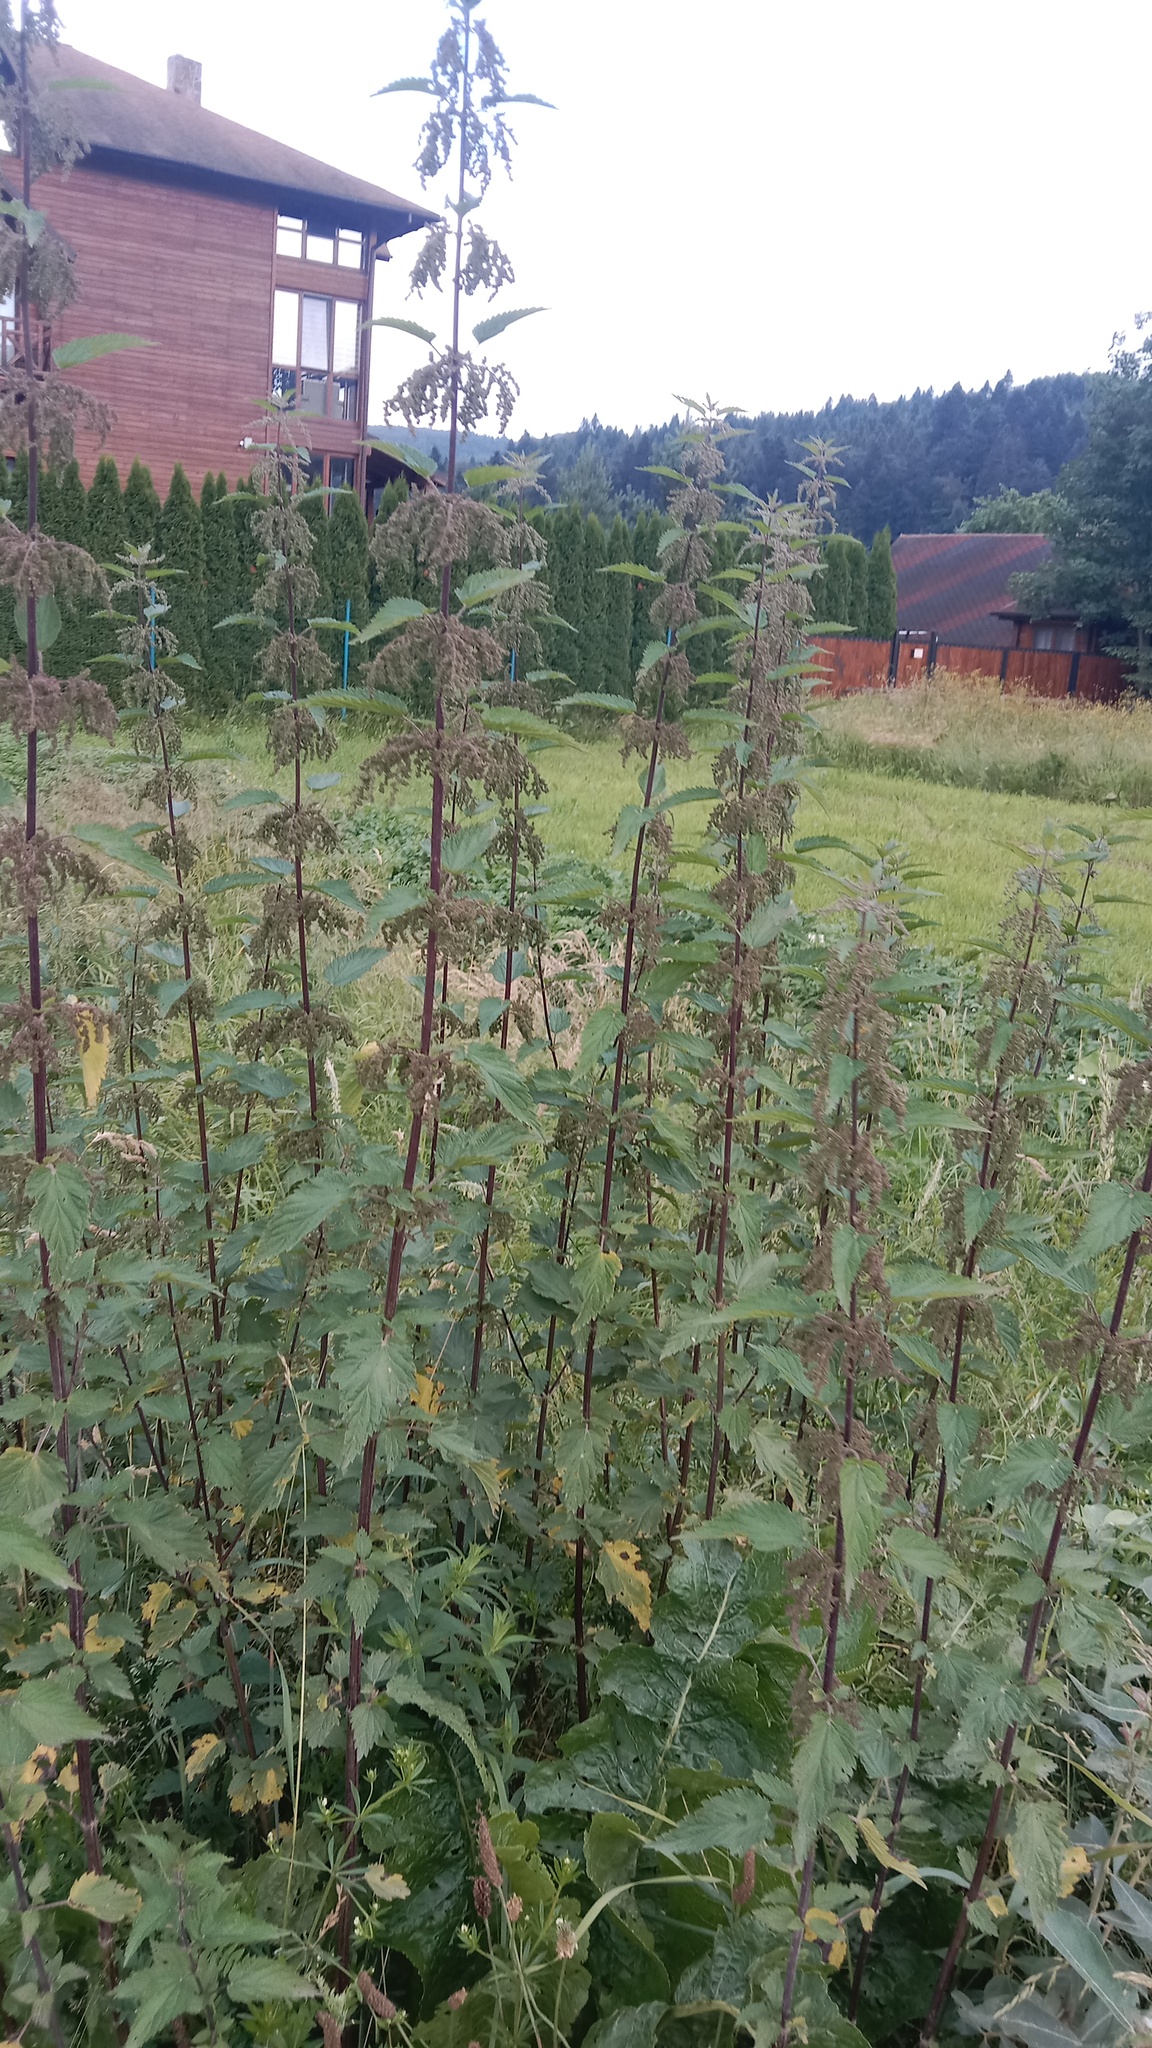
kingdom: Plantae
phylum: Tracheophyta
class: Magnoliopsida
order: Rosales
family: Urticaceae
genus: Urtica
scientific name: Urtica dioica
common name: Common nettle
